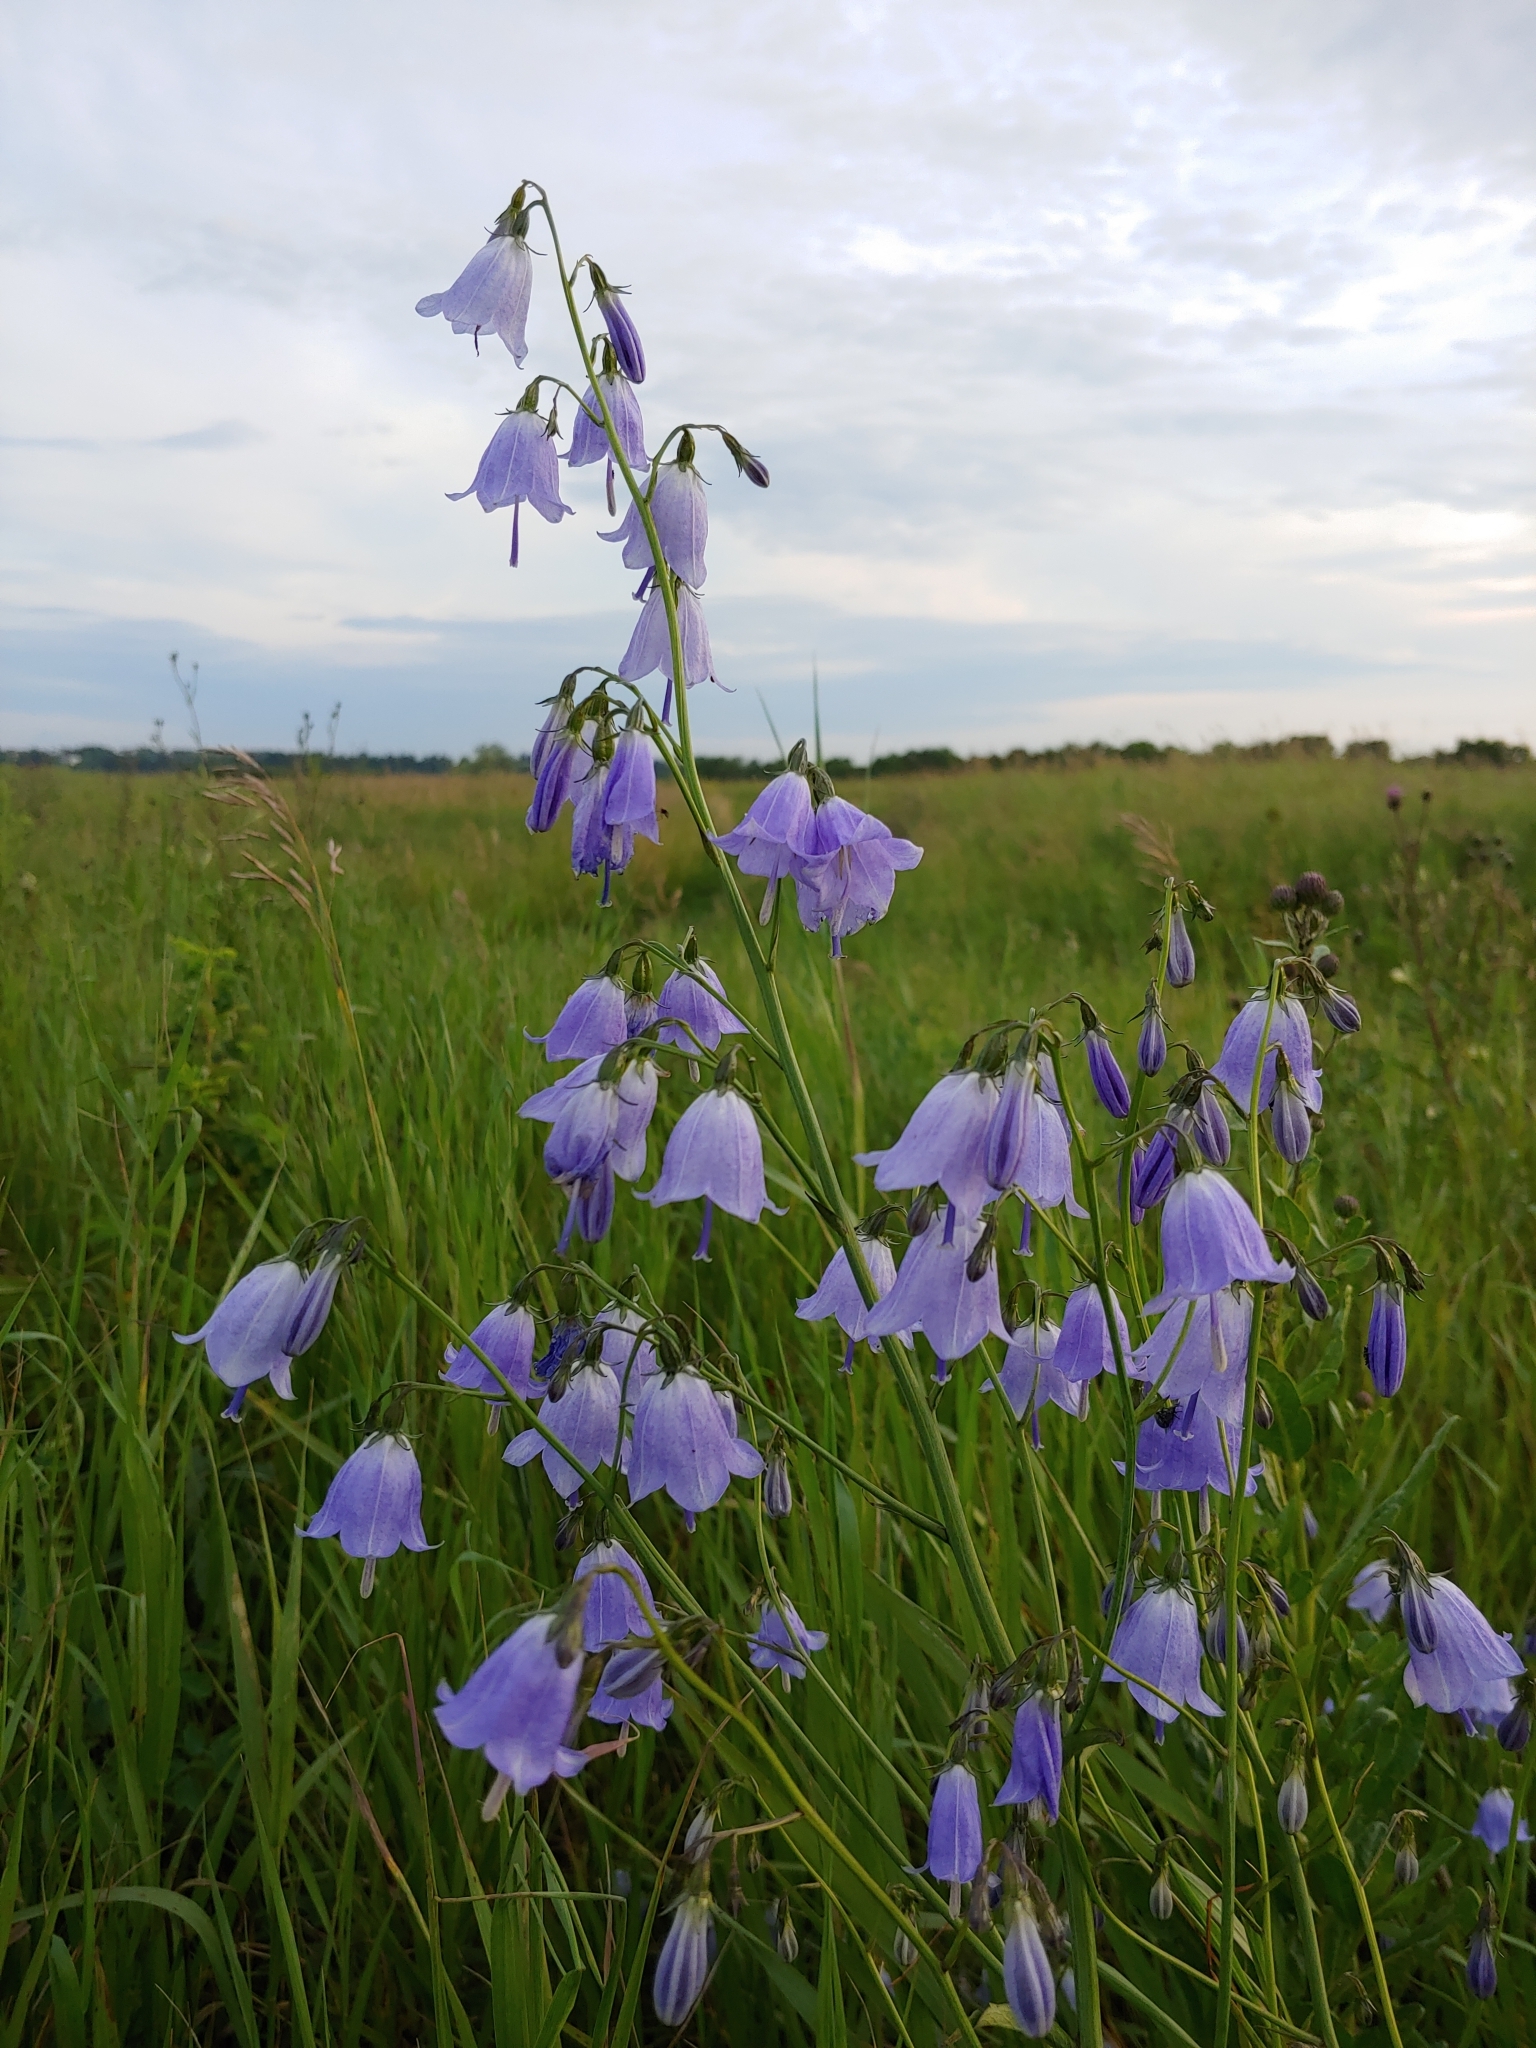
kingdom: Plantae
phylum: Tracheophyta
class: Magnoliopsida
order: Asterales
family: Campanulaceae
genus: Adenophora
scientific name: Adenophora liliifolia
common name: Lilyleaf ladybells
